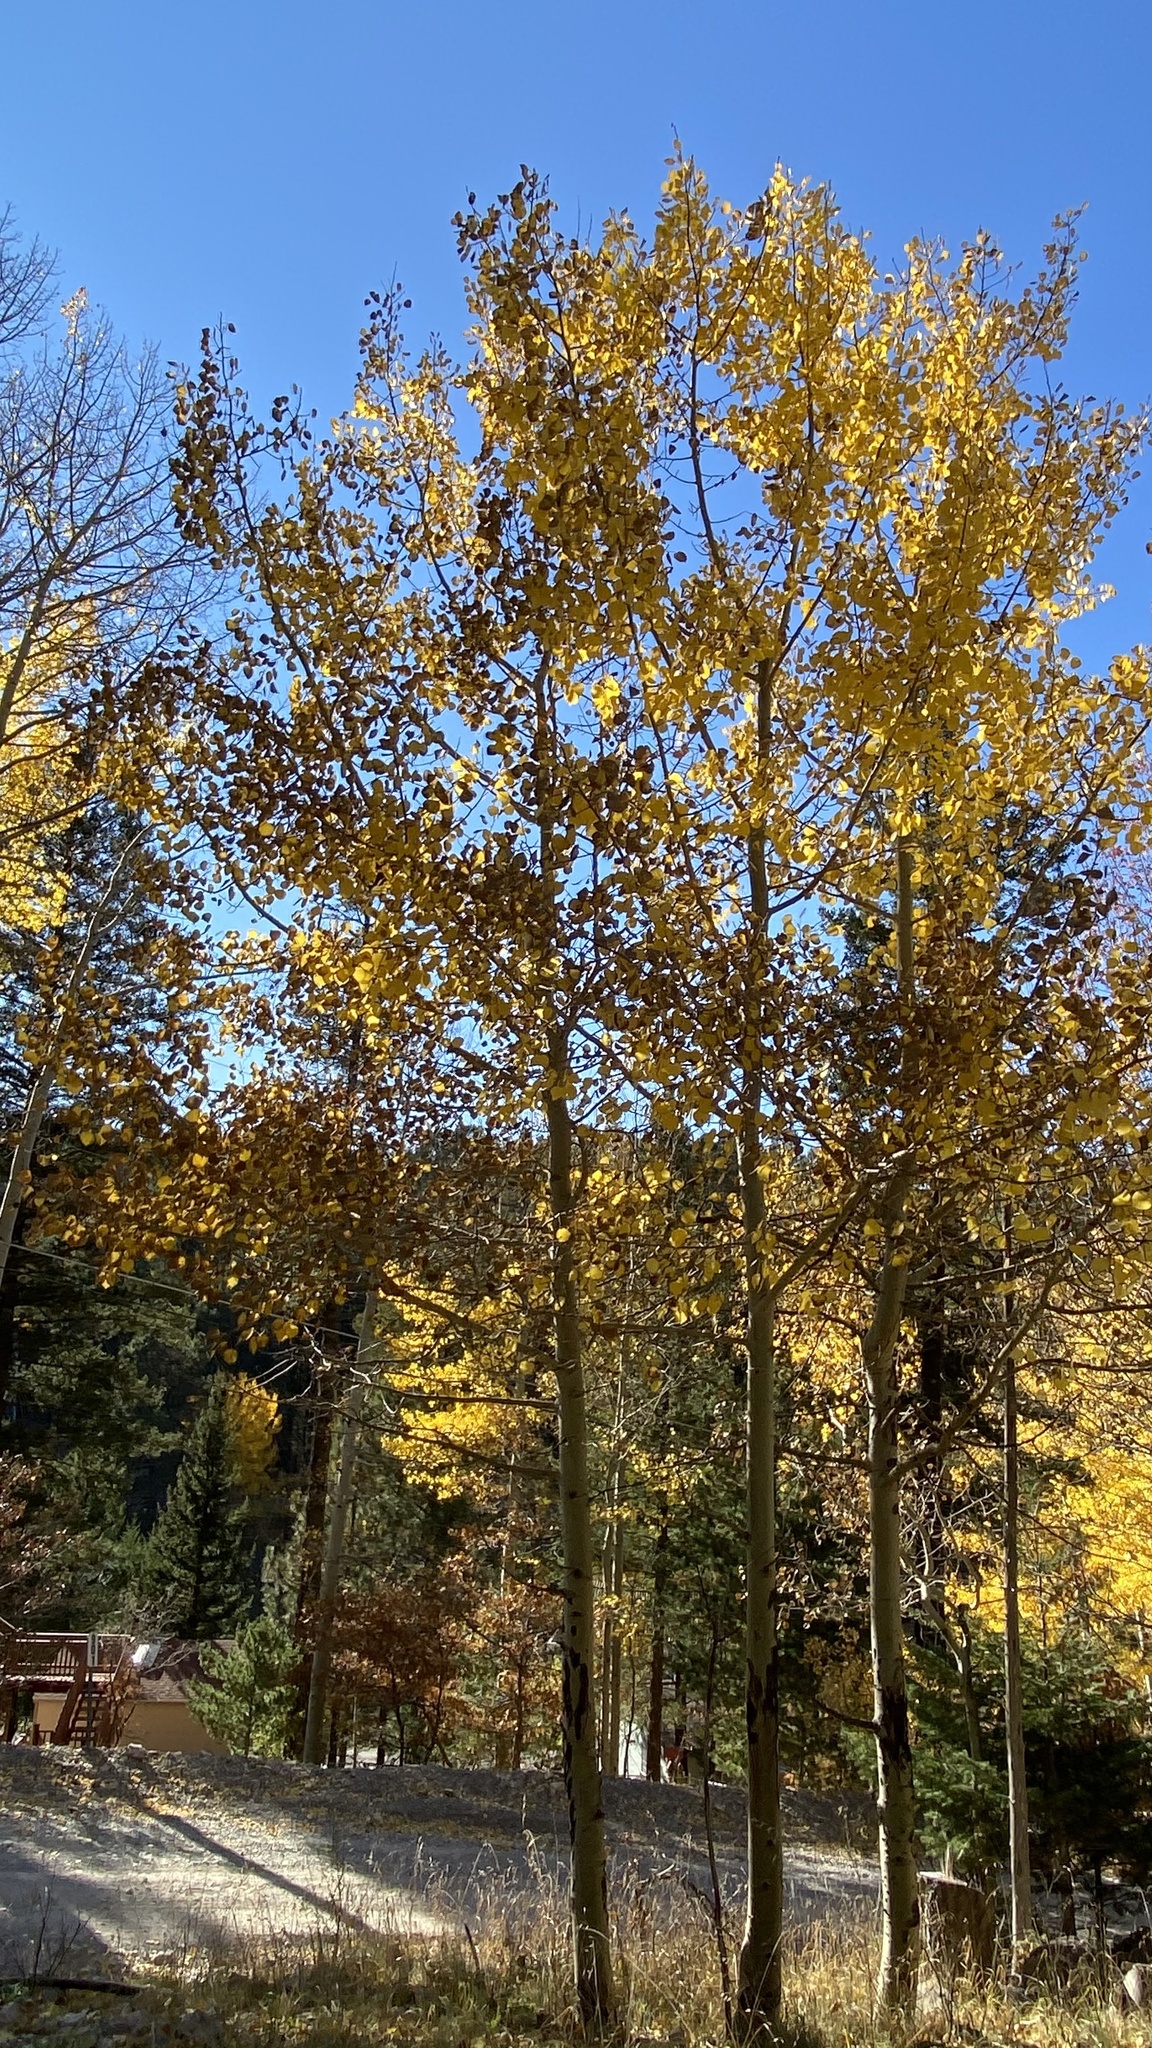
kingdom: Plantae
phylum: Tracheophyta
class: Magnoliopsida
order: Malpighiales
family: Salicaceae
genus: Populus
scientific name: Populus tremuloides
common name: Quaking aspen
